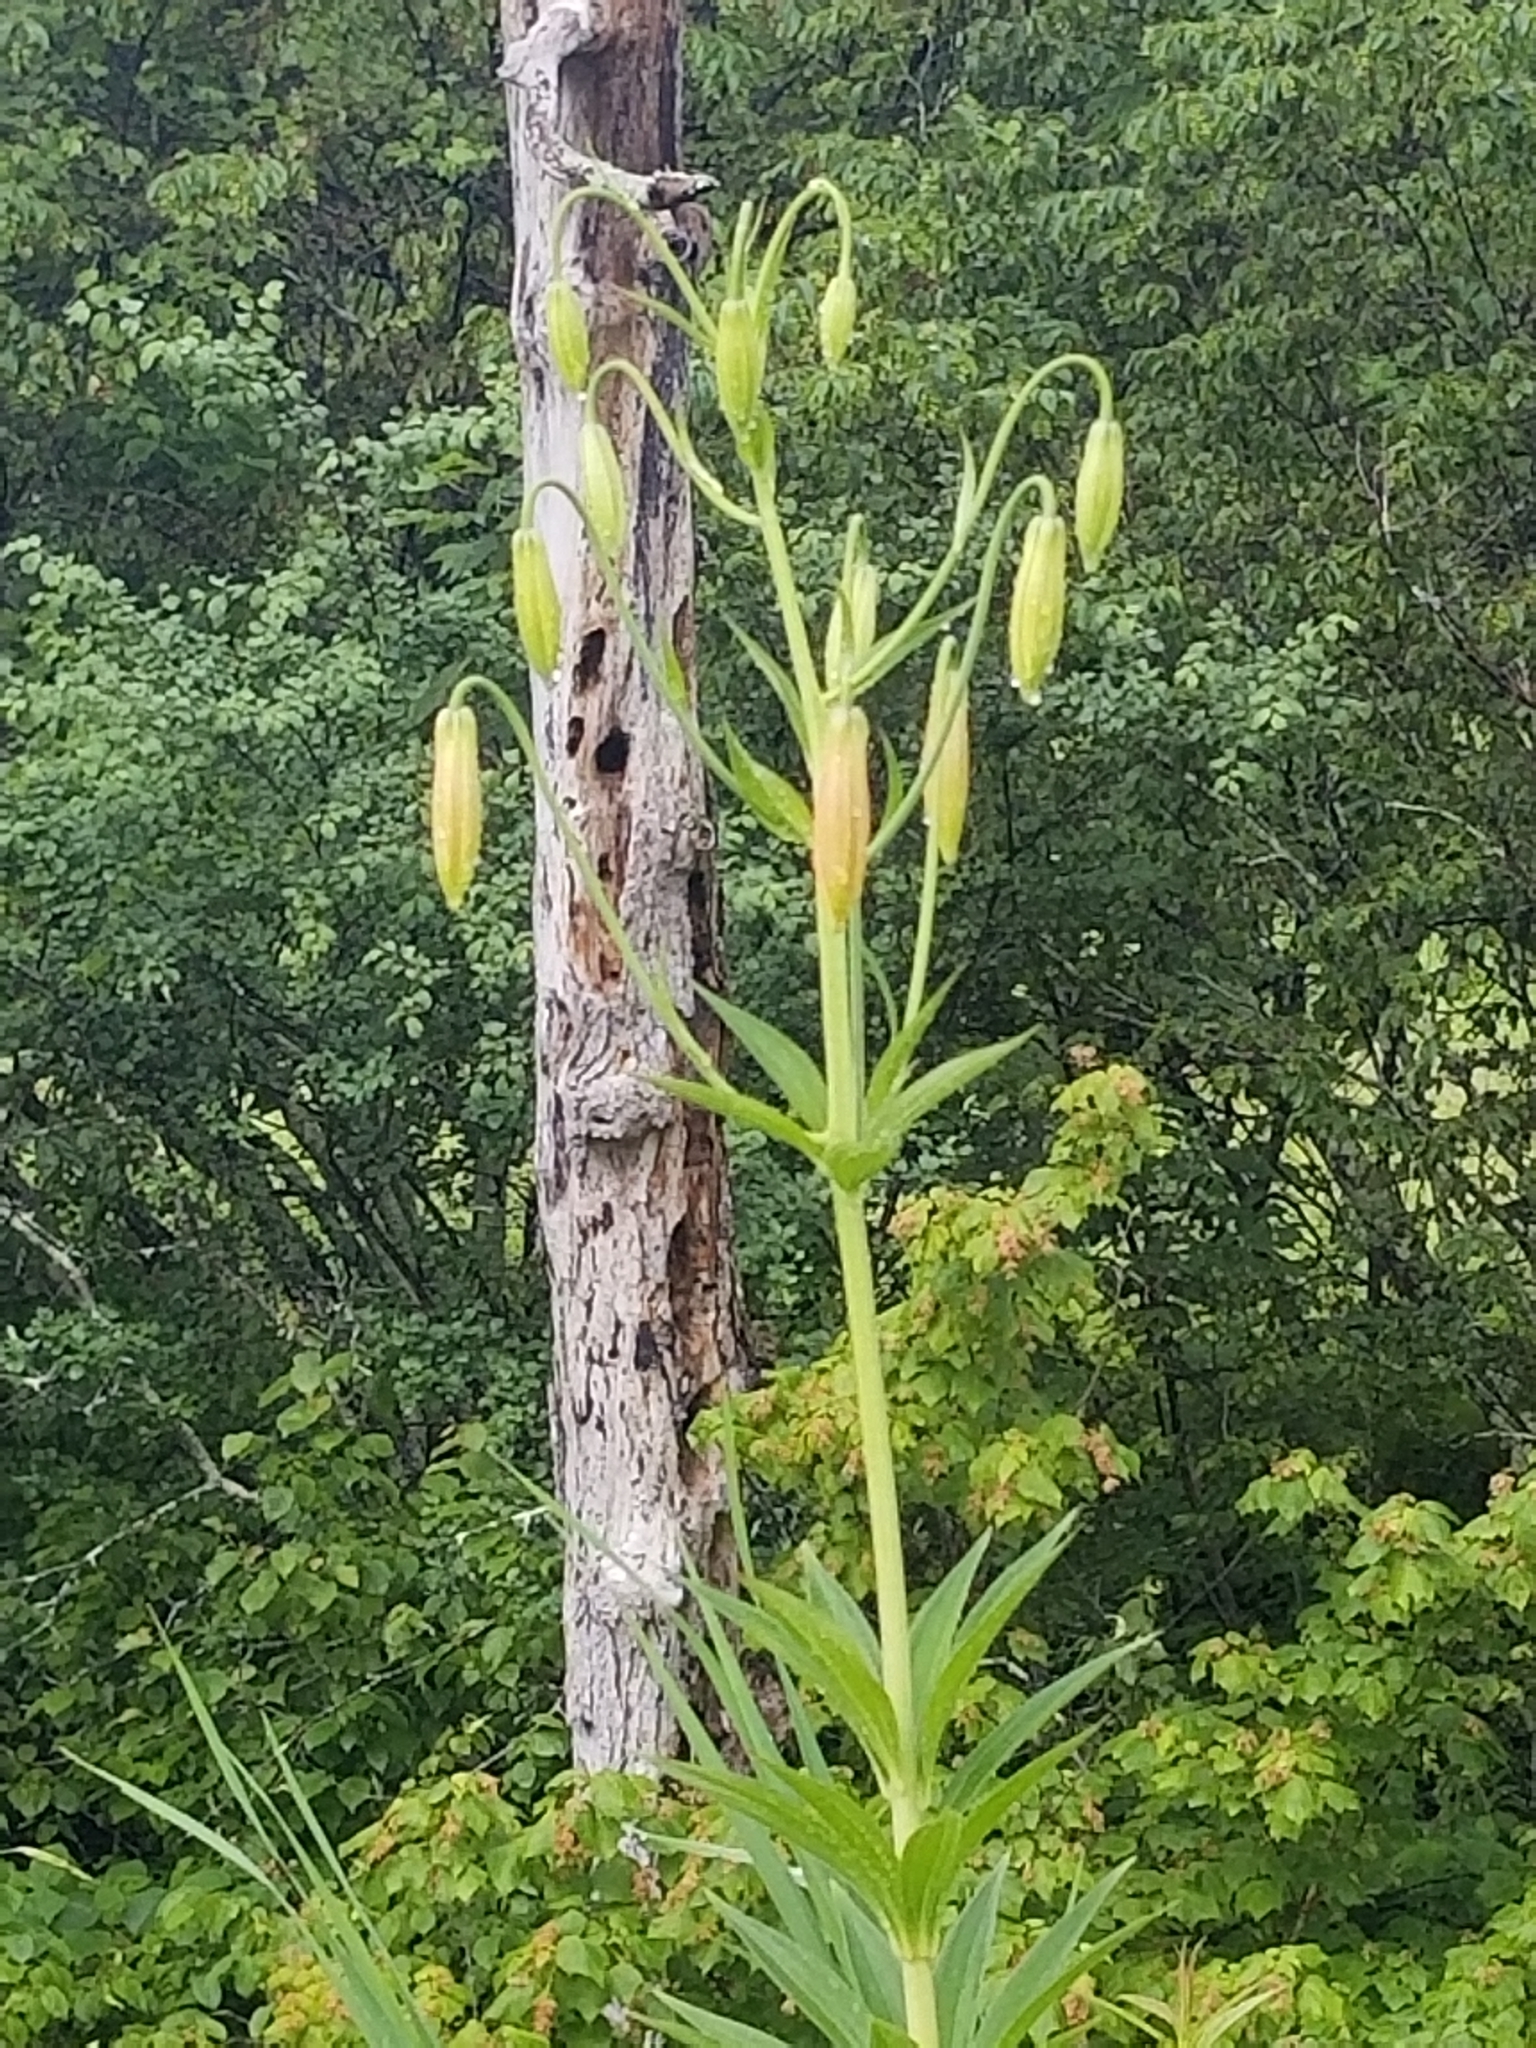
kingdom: Plantae
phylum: Tracheophyta
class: Liliopsida
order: Liliales
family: Liliaceae
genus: Lilium
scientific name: Lilium canadense
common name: Canada lily
